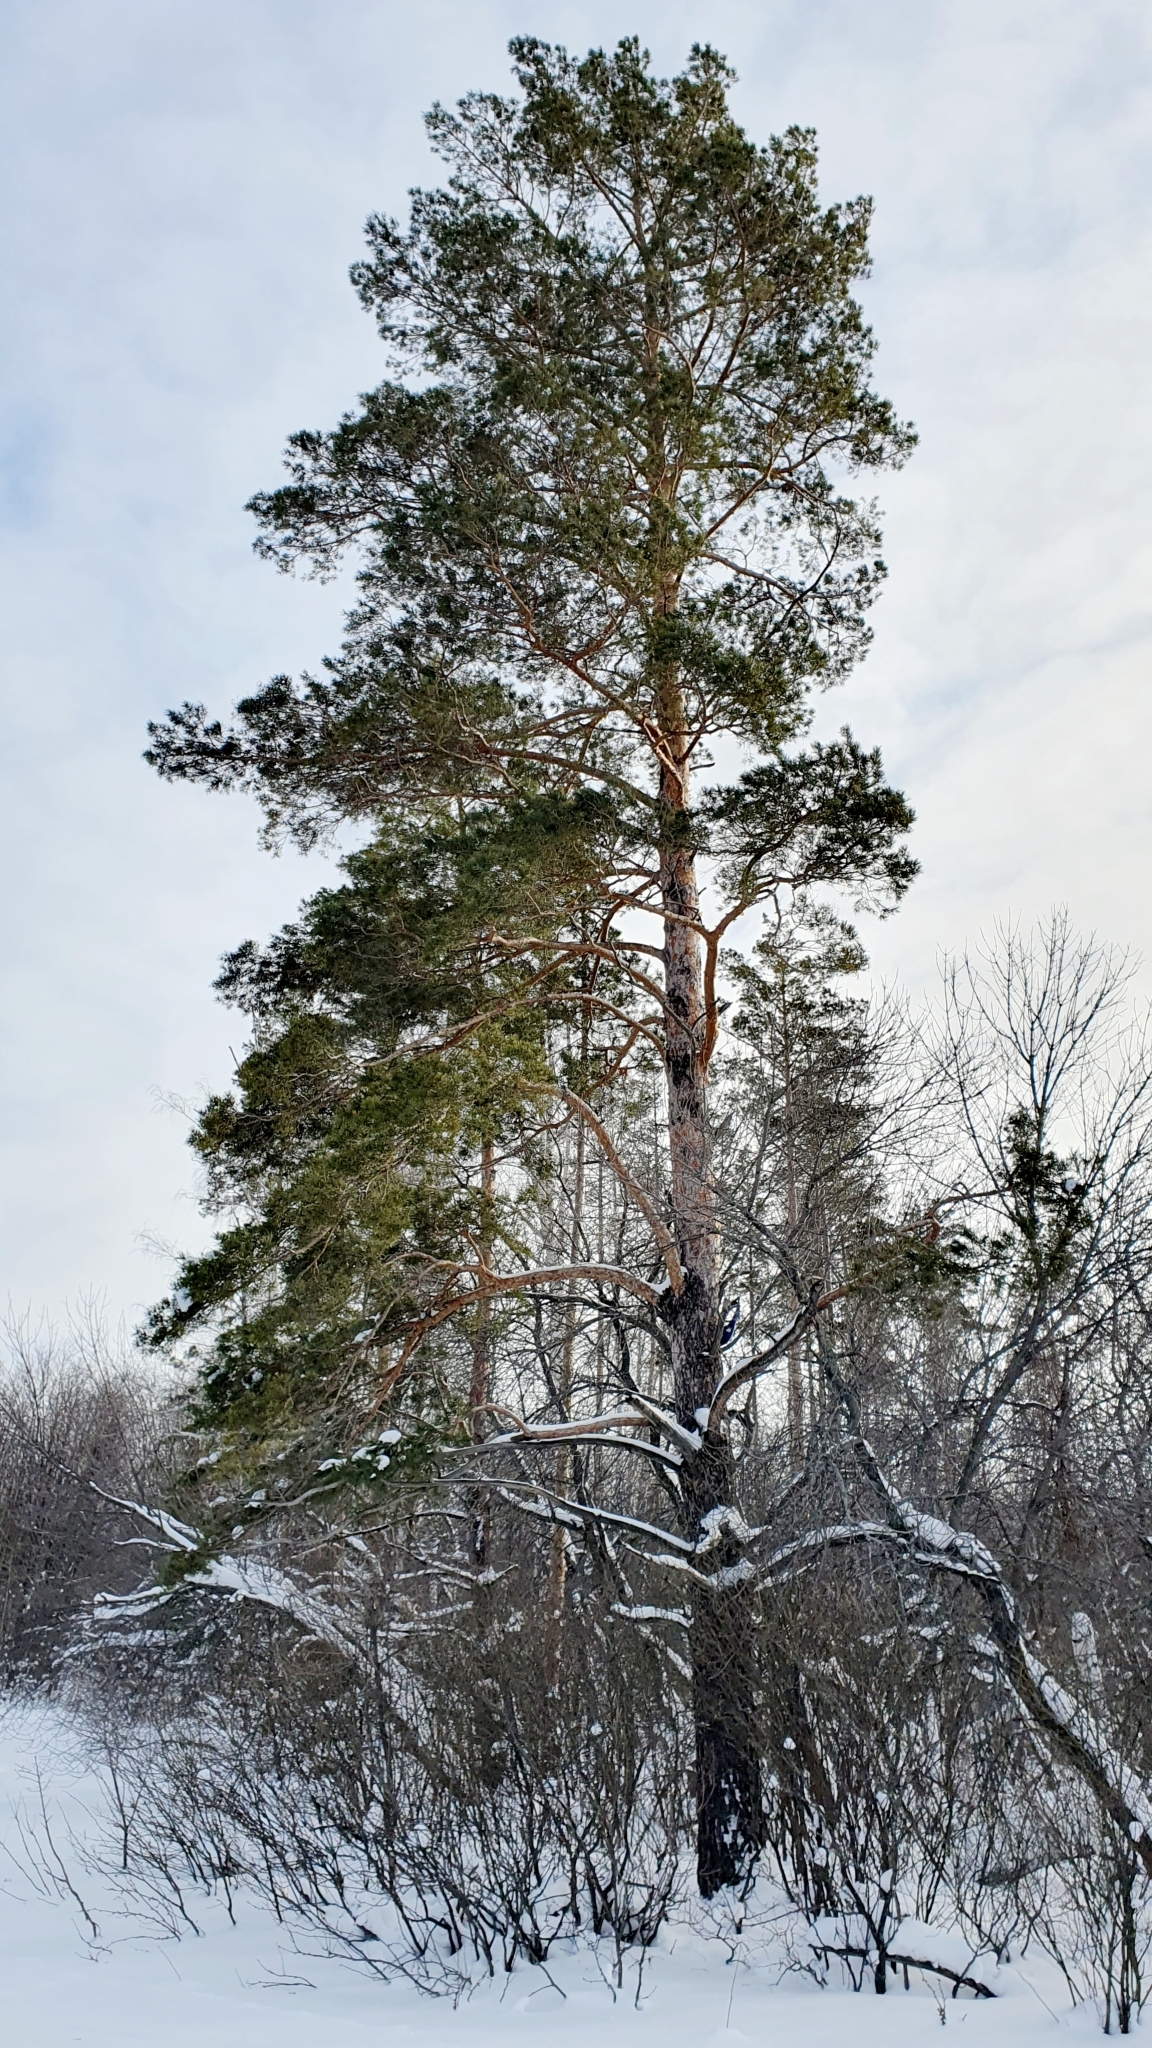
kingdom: Plantae
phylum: Tracheophyta
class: Pinopsida
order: Pinales
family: Pinaceae
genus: Pinus
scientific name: Pinus sylvestris
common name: Scots pine
